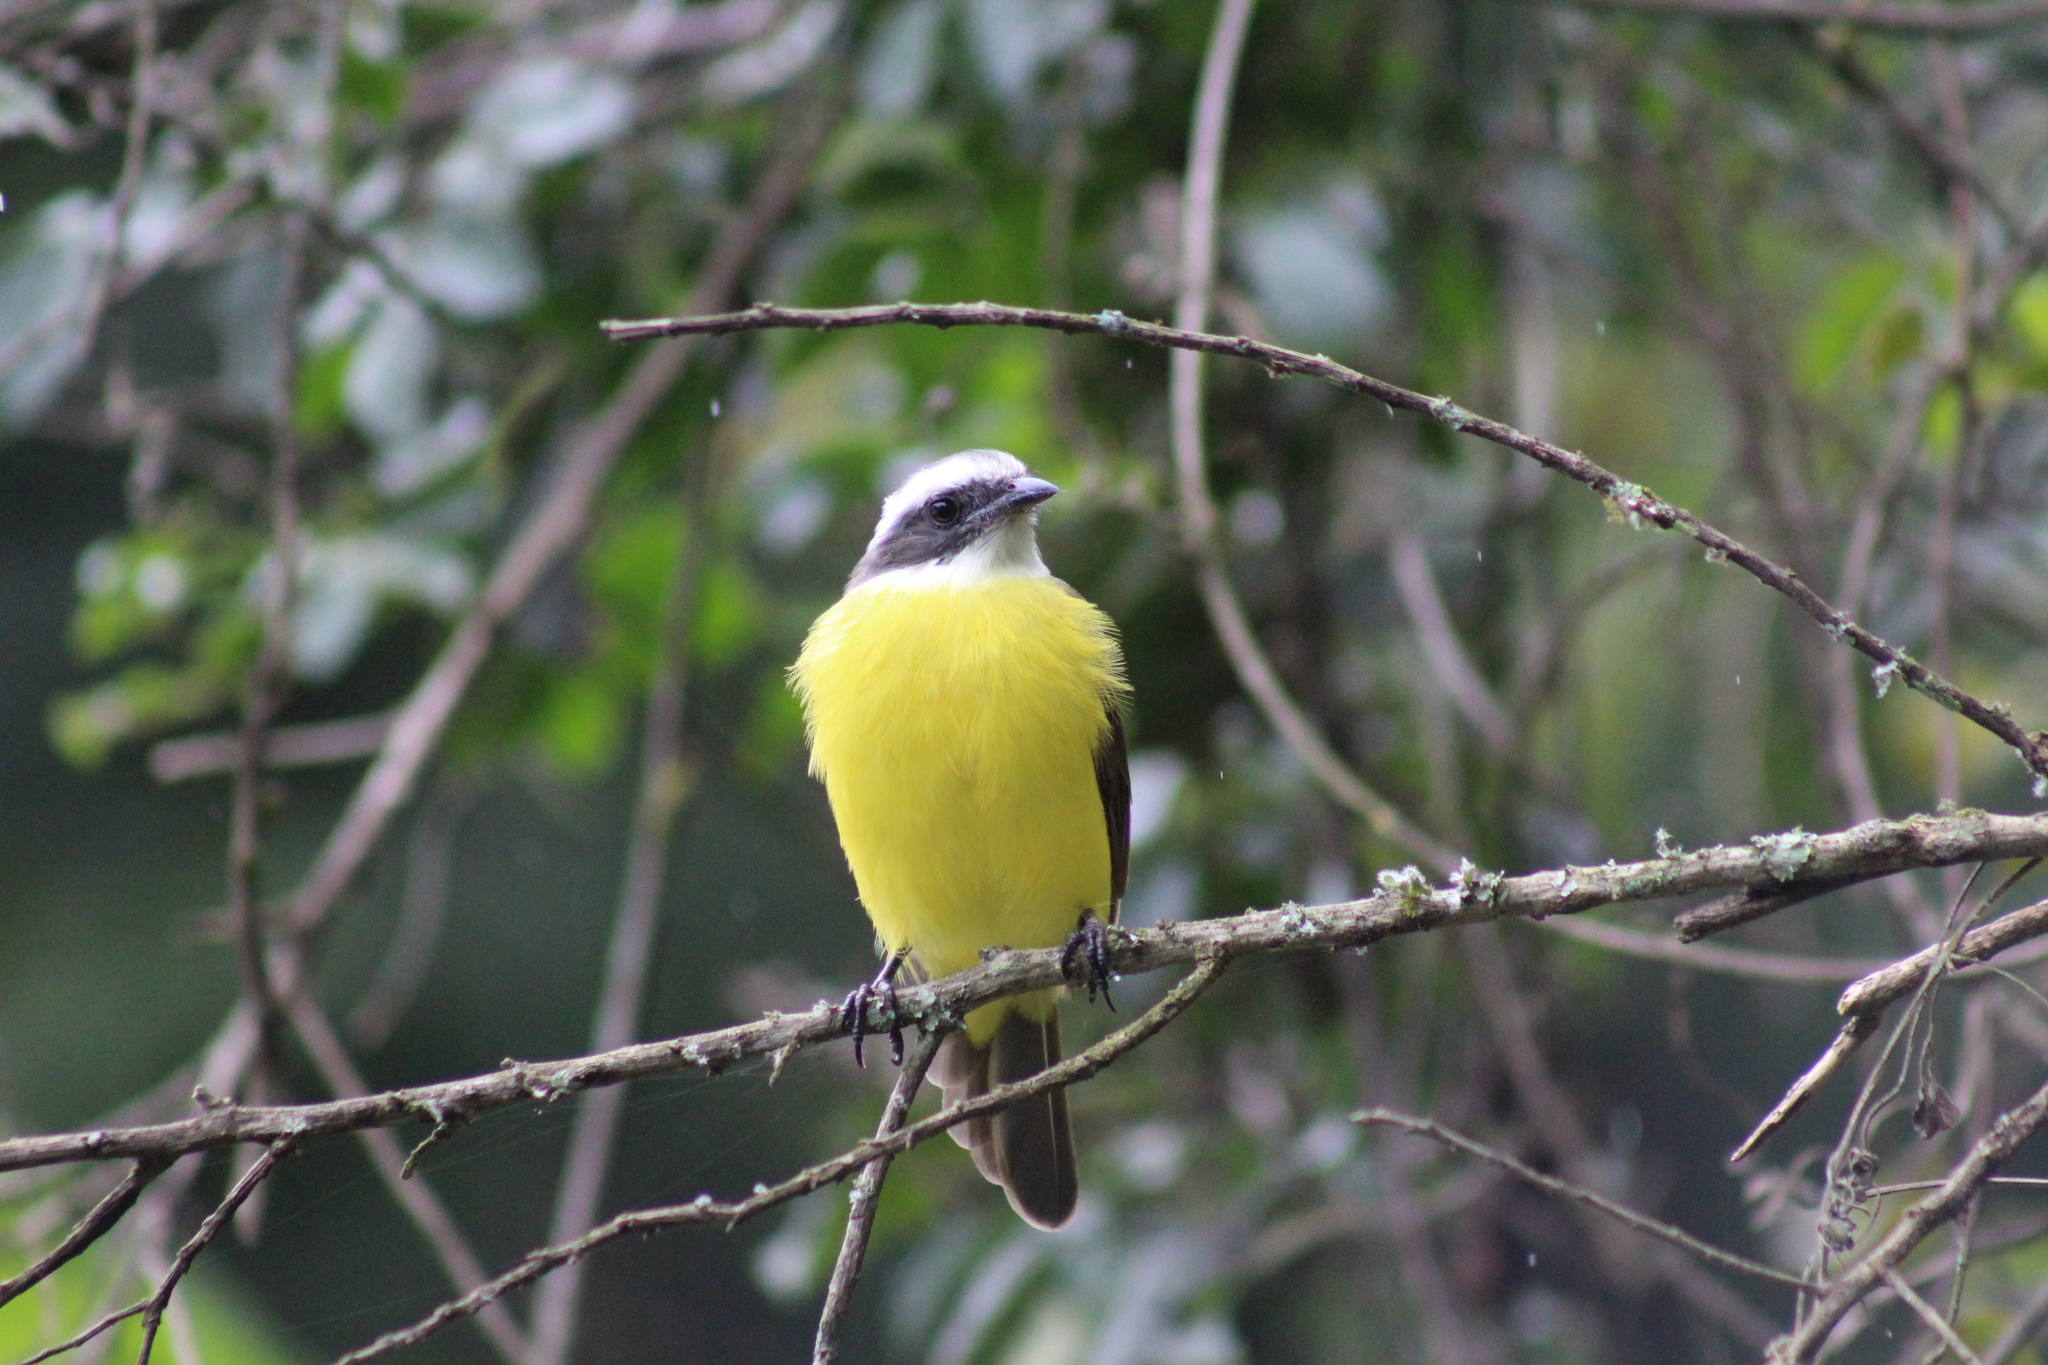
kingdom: Animalia
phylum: Chordata
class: Aves
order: Passeriformes
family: Tyrannidae
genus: Myiozetetes
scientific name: Myiozetetes similis
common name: Social flycatcher
